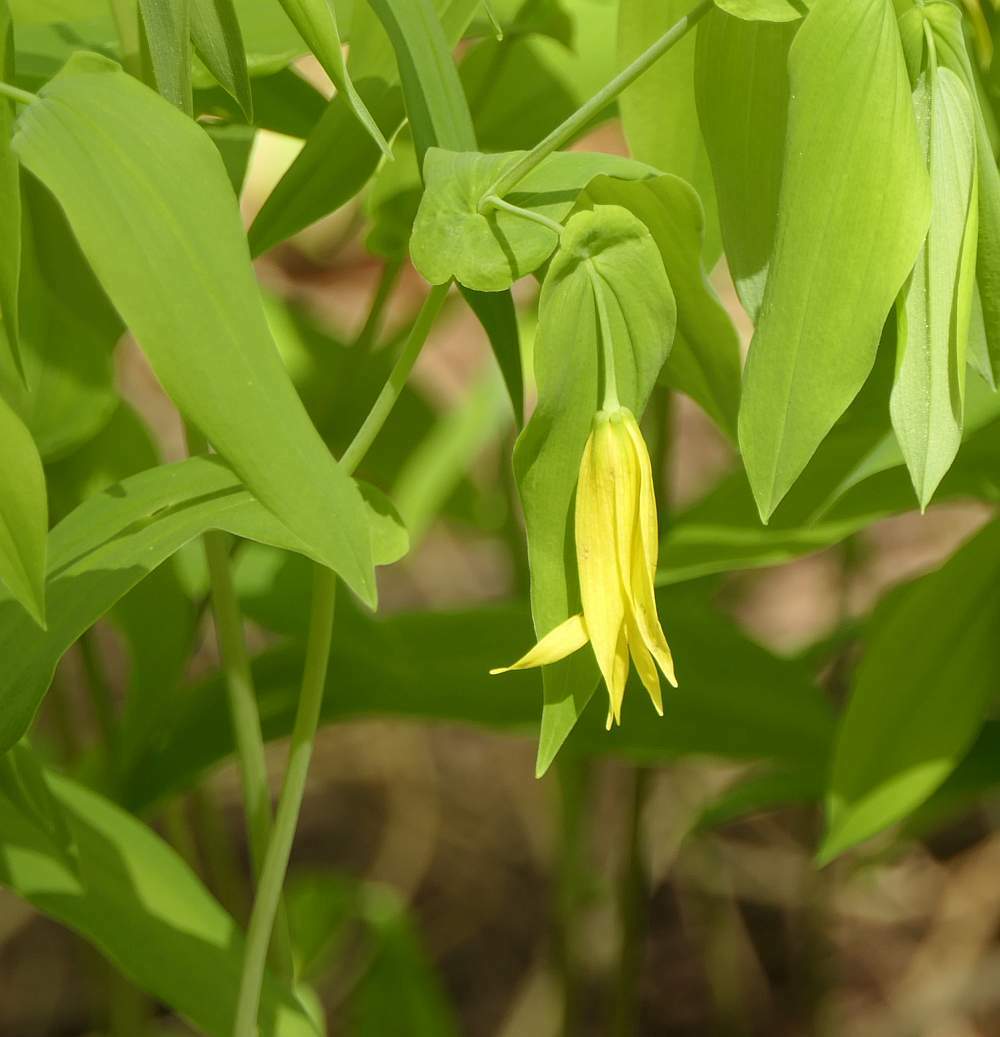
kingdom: Plantae
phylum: Tracheophyta
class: Liliopsida
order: Liliales
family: Colchicaceae
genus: Uvularia
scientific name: Uvularia grandiflora
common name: Bellwort
